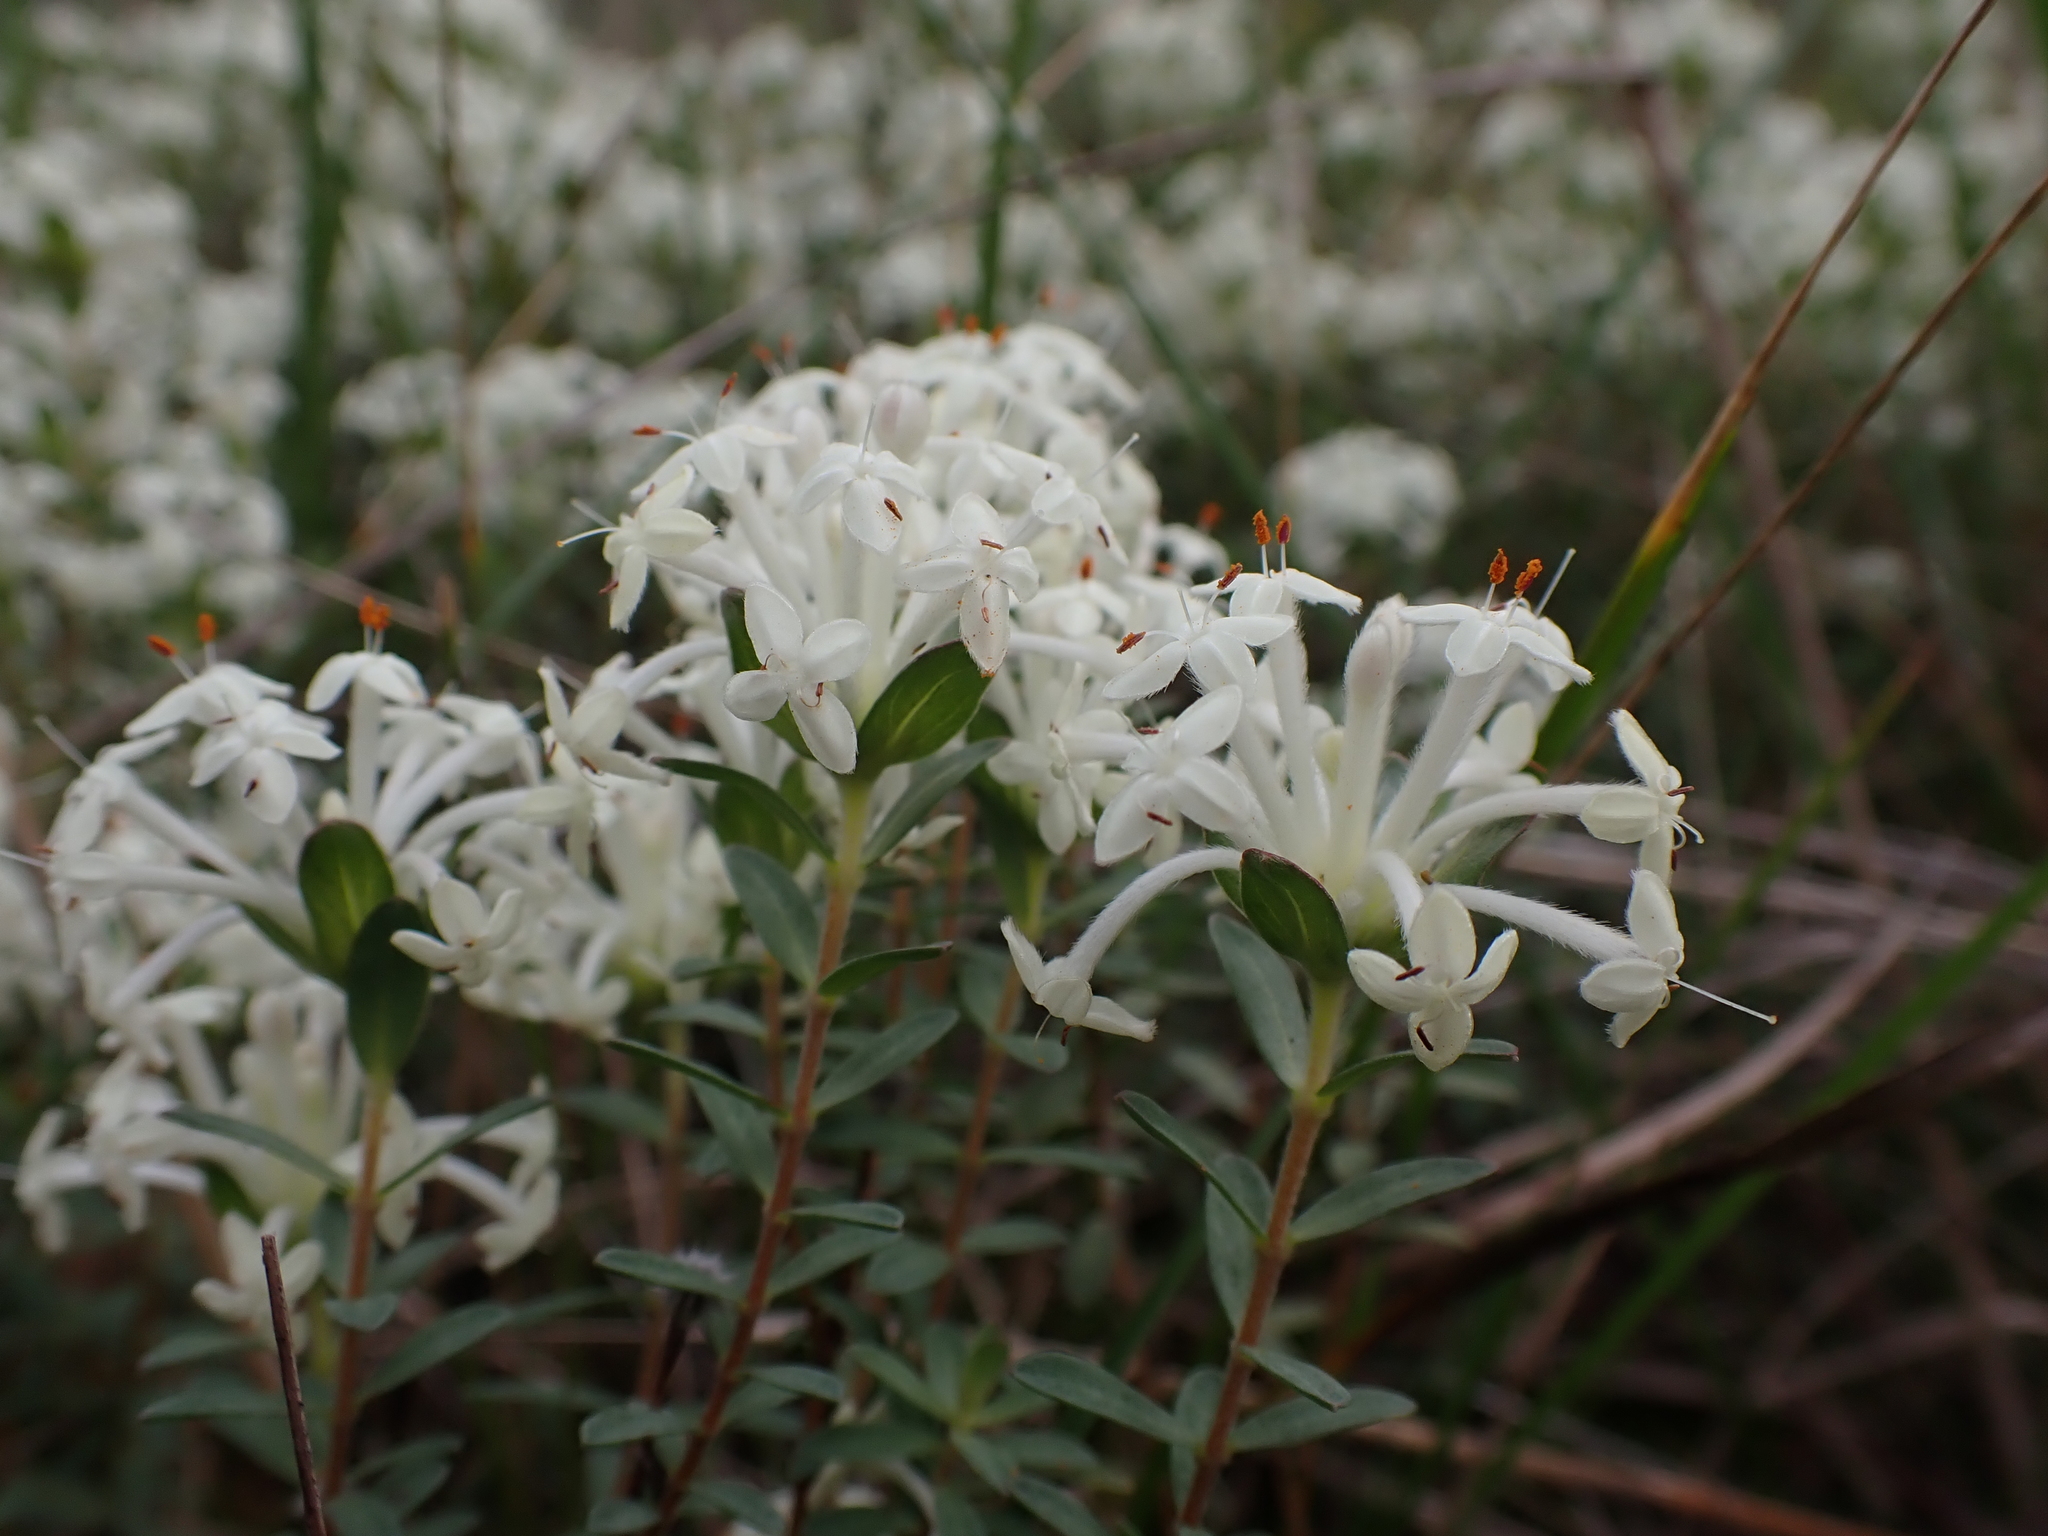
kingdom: Plantae
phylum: Tracheophyta
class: Magnoliopsida
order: Malvales
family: Thymelaeaceae
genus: Pimelea
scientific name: Pimelea humilis
